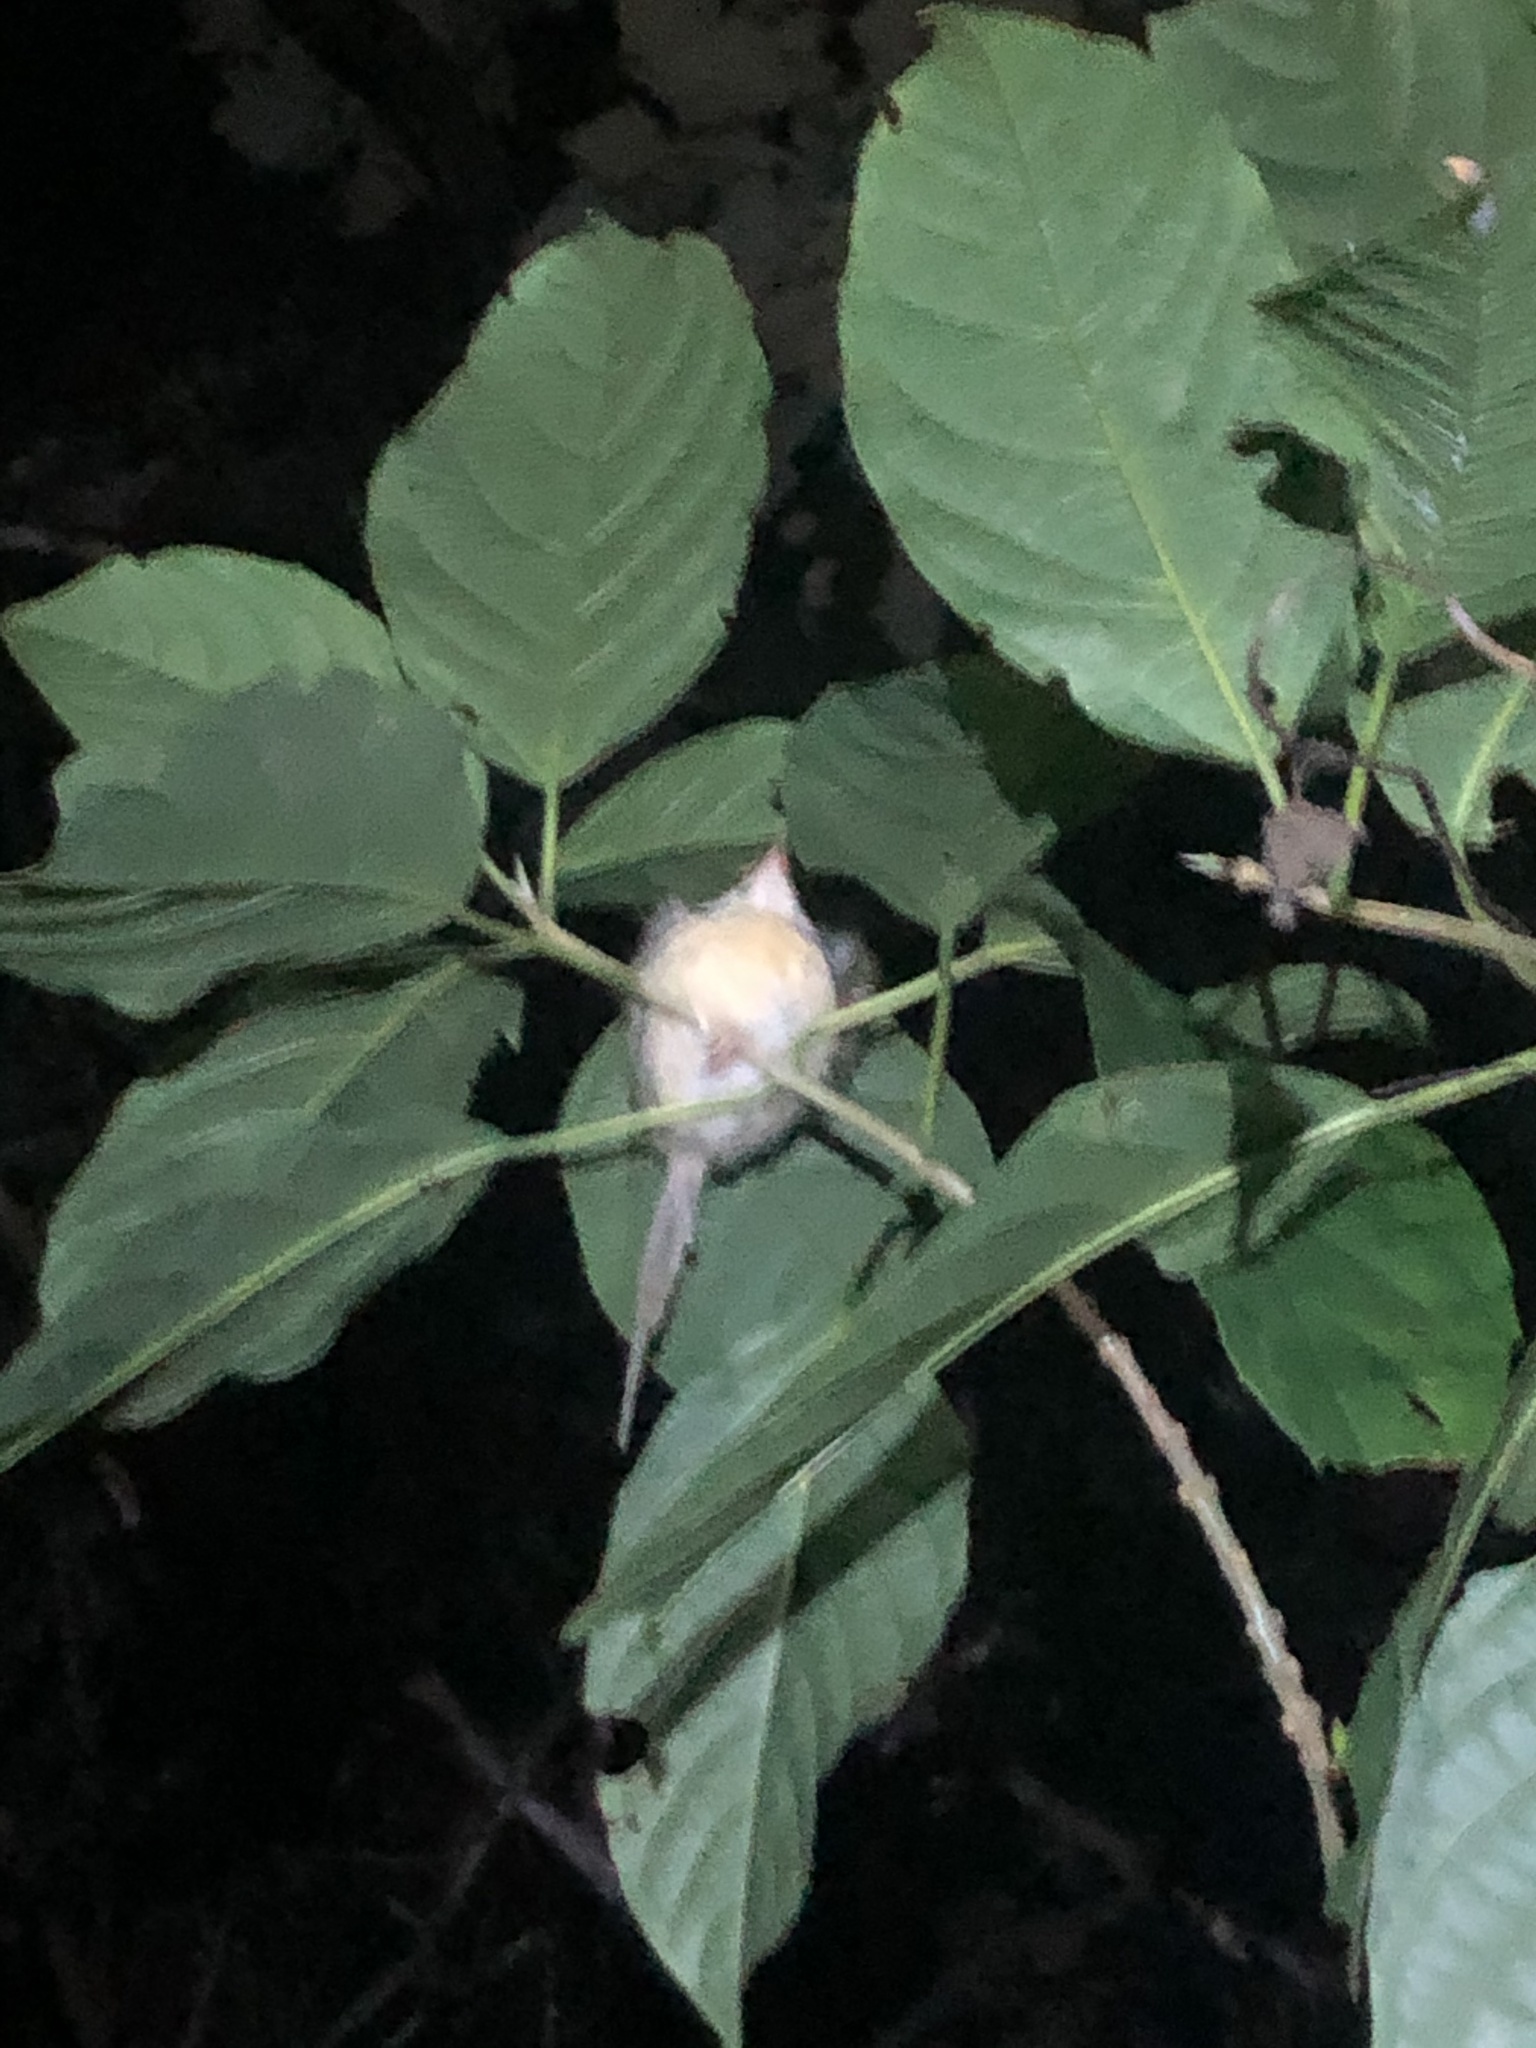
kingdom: Animalia
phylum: Chordata
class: Aves
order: Passeriformes
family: Cisticolidae
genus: Orthotomus
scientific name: Orthotomus sutorius
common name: Common tailorbird
